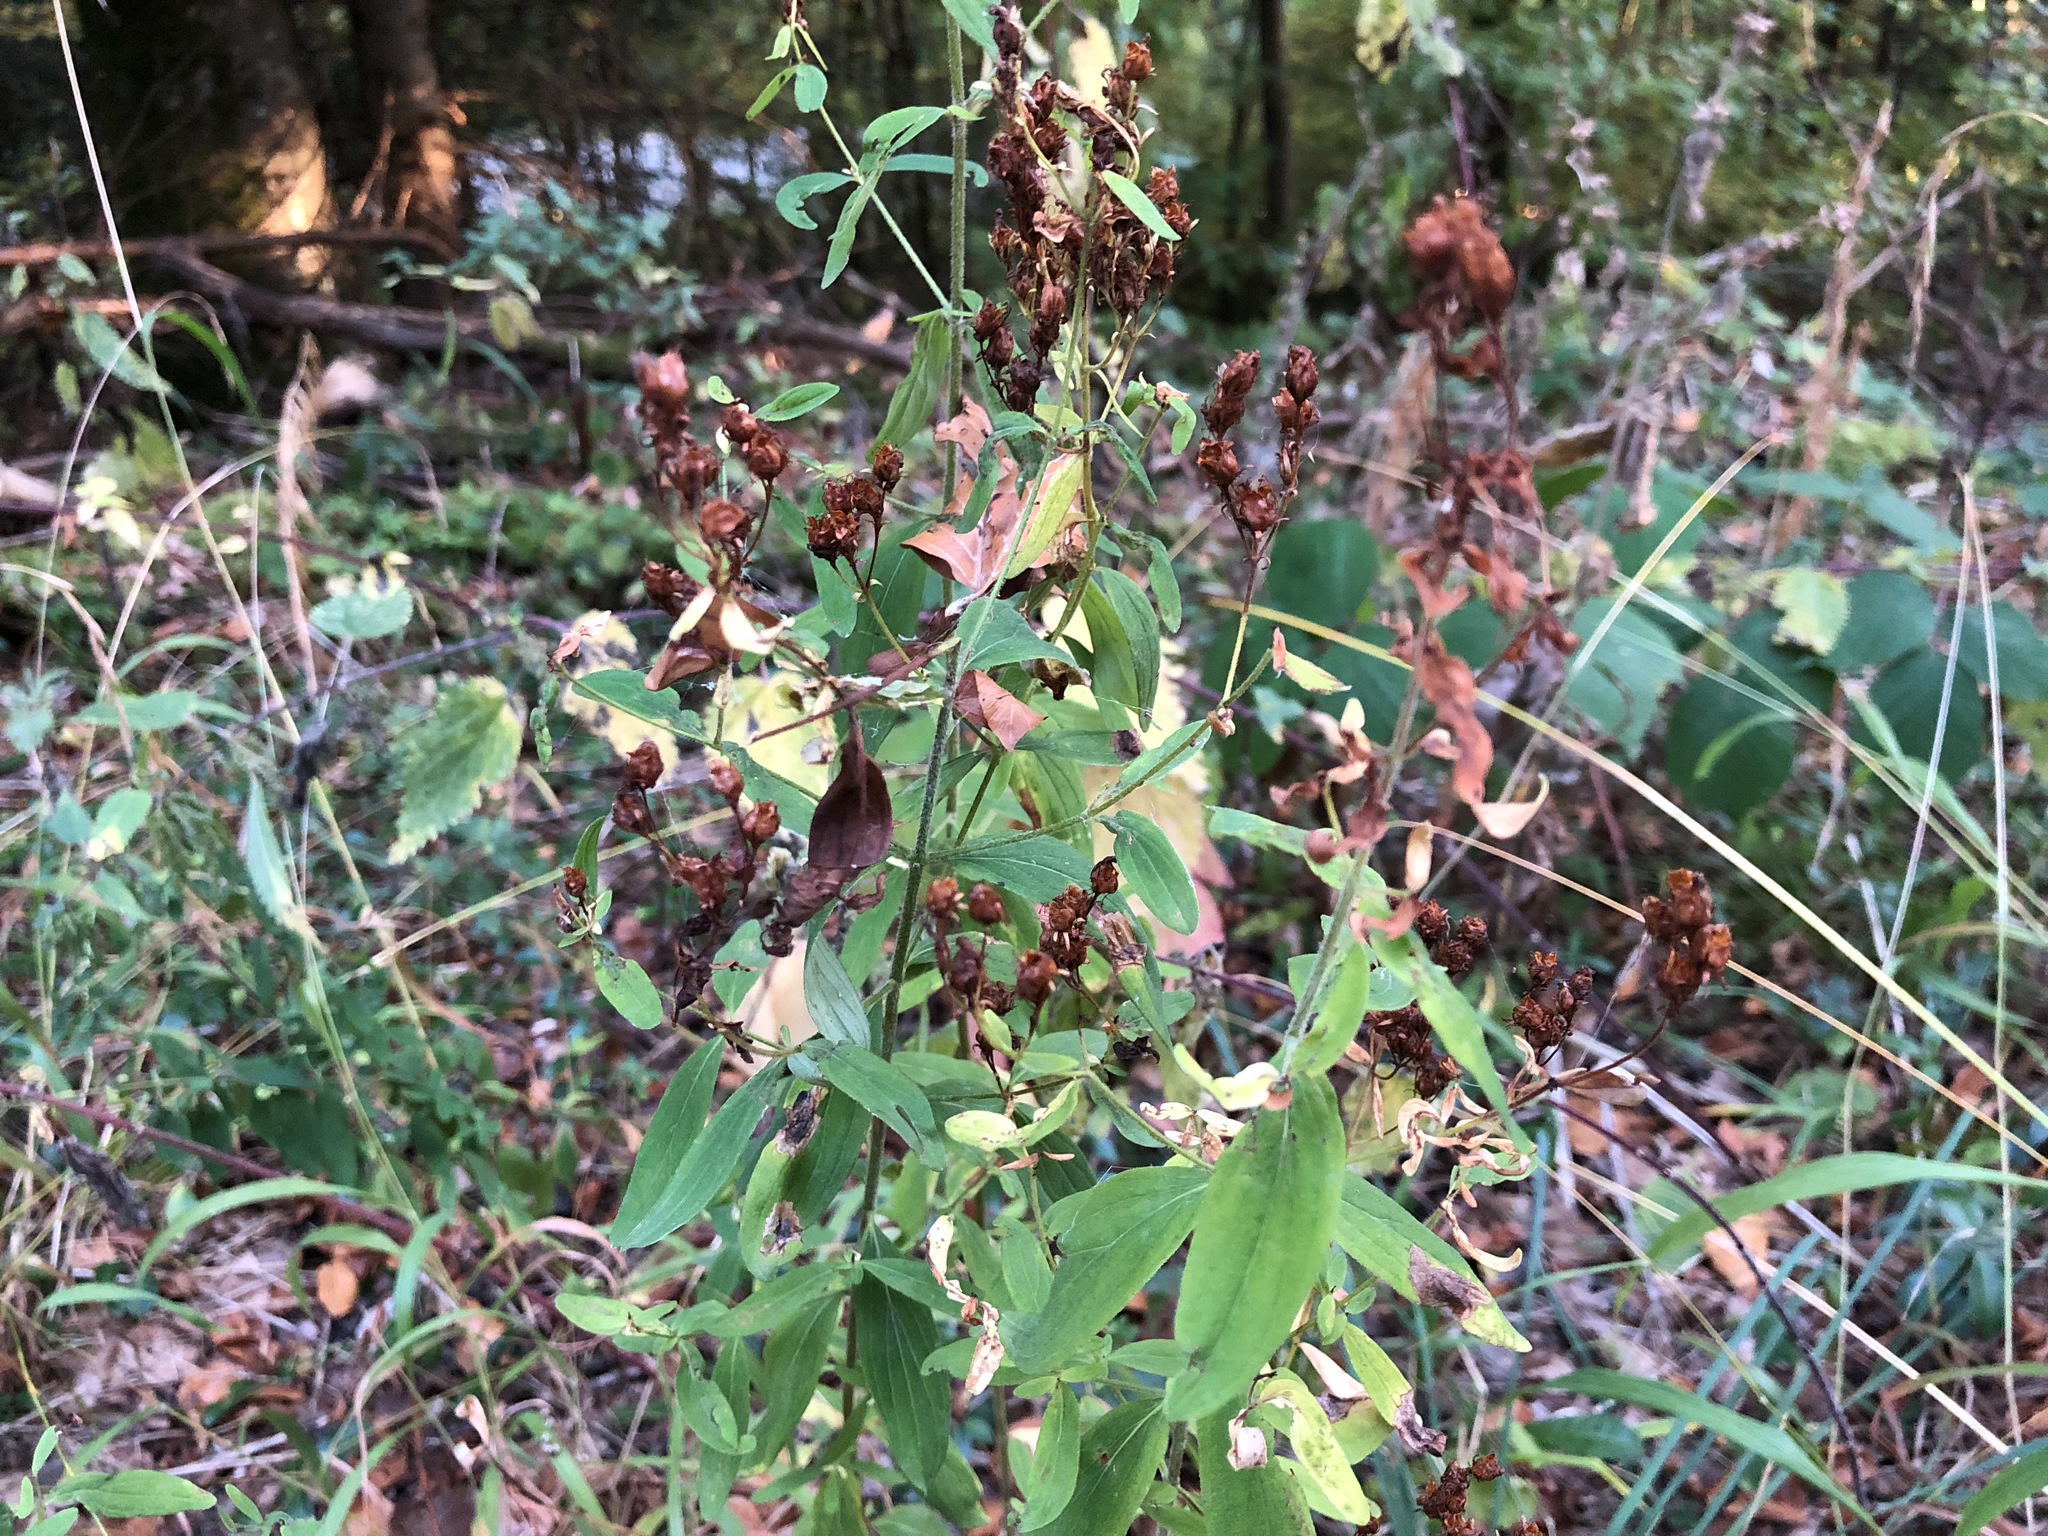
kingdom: Plantae
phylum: Tracheophyta
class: Magnoliopsida
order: Malpighiales
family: Hypericaceae
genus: Hypericum
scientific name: Hypericum hirsutum
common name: Hairy st. john's-wort
